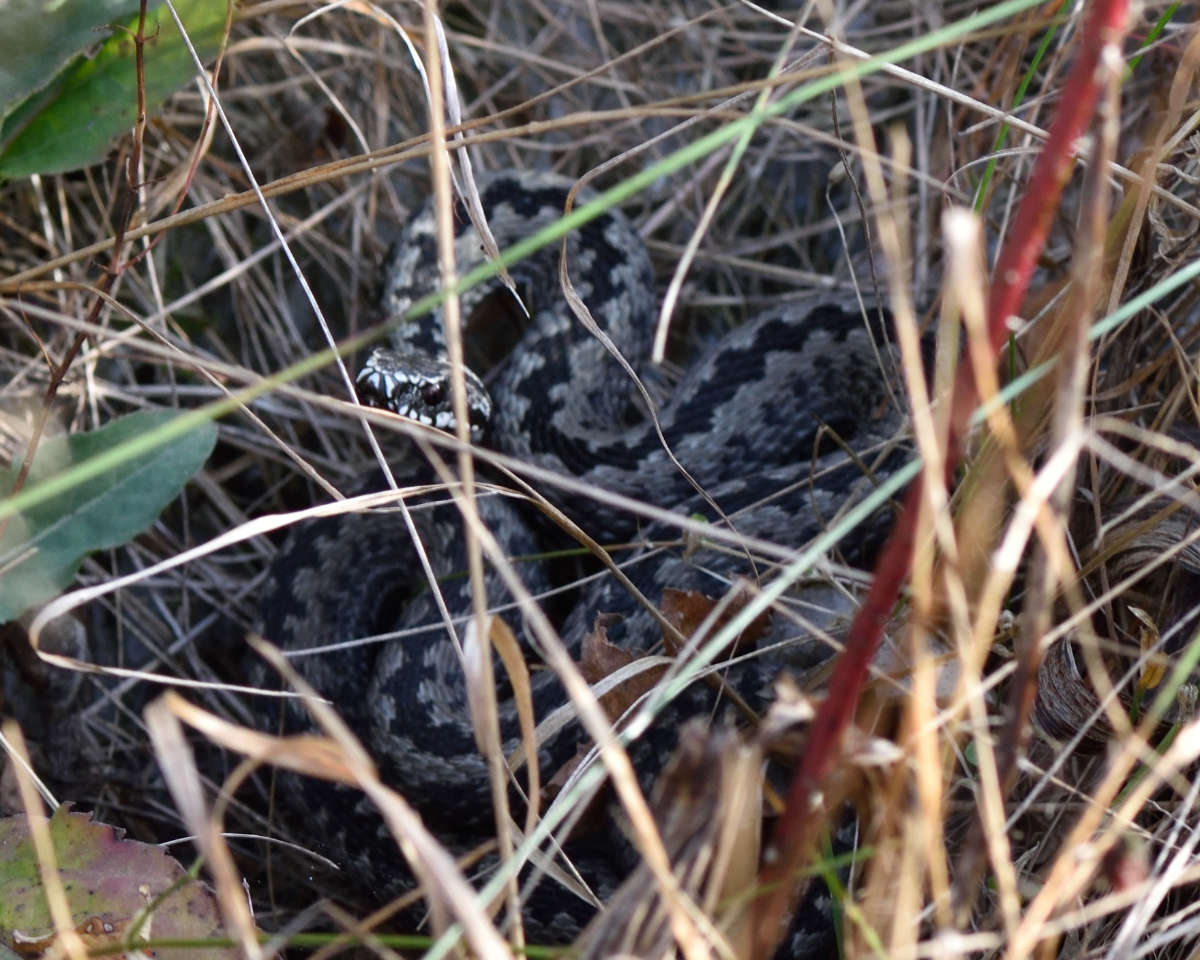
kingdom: Animalia
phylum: Chordata
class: Squamata
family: Viperidae
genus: Vipera
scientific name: Vipera berus
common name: Adder
